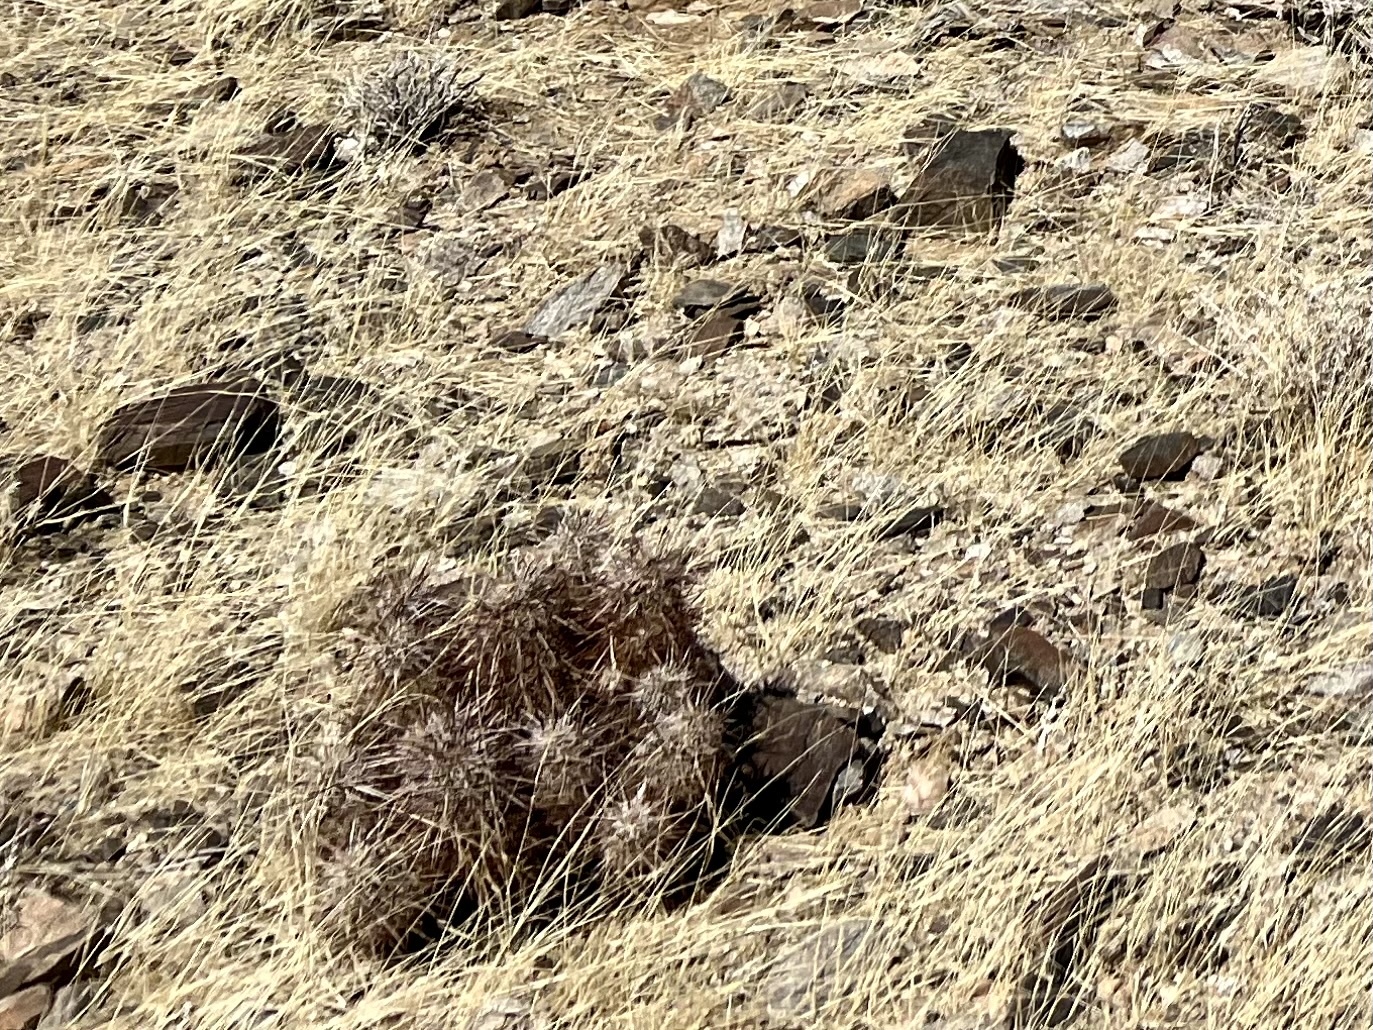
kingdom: Plantae
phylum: Tracheophyta
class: Magnoliopsida
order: Caryophyllales
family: Cactaceae
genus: Echinocereus
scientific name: Echinocereus engelmannii
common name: Engelmann's hedgehog cactus
